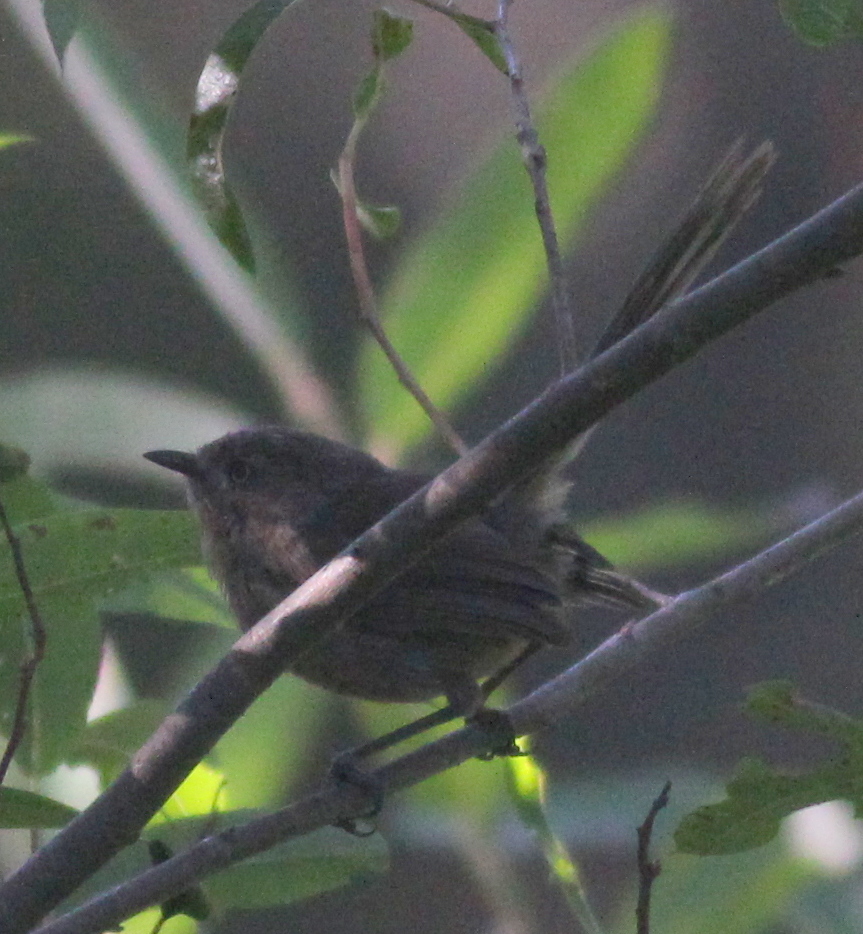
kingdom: Animalia
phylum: Chordata
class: Aves
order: Passeriformes
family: Sylviidae
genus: Chamaea
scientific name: Chamaea fasciata
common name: Wrentit
